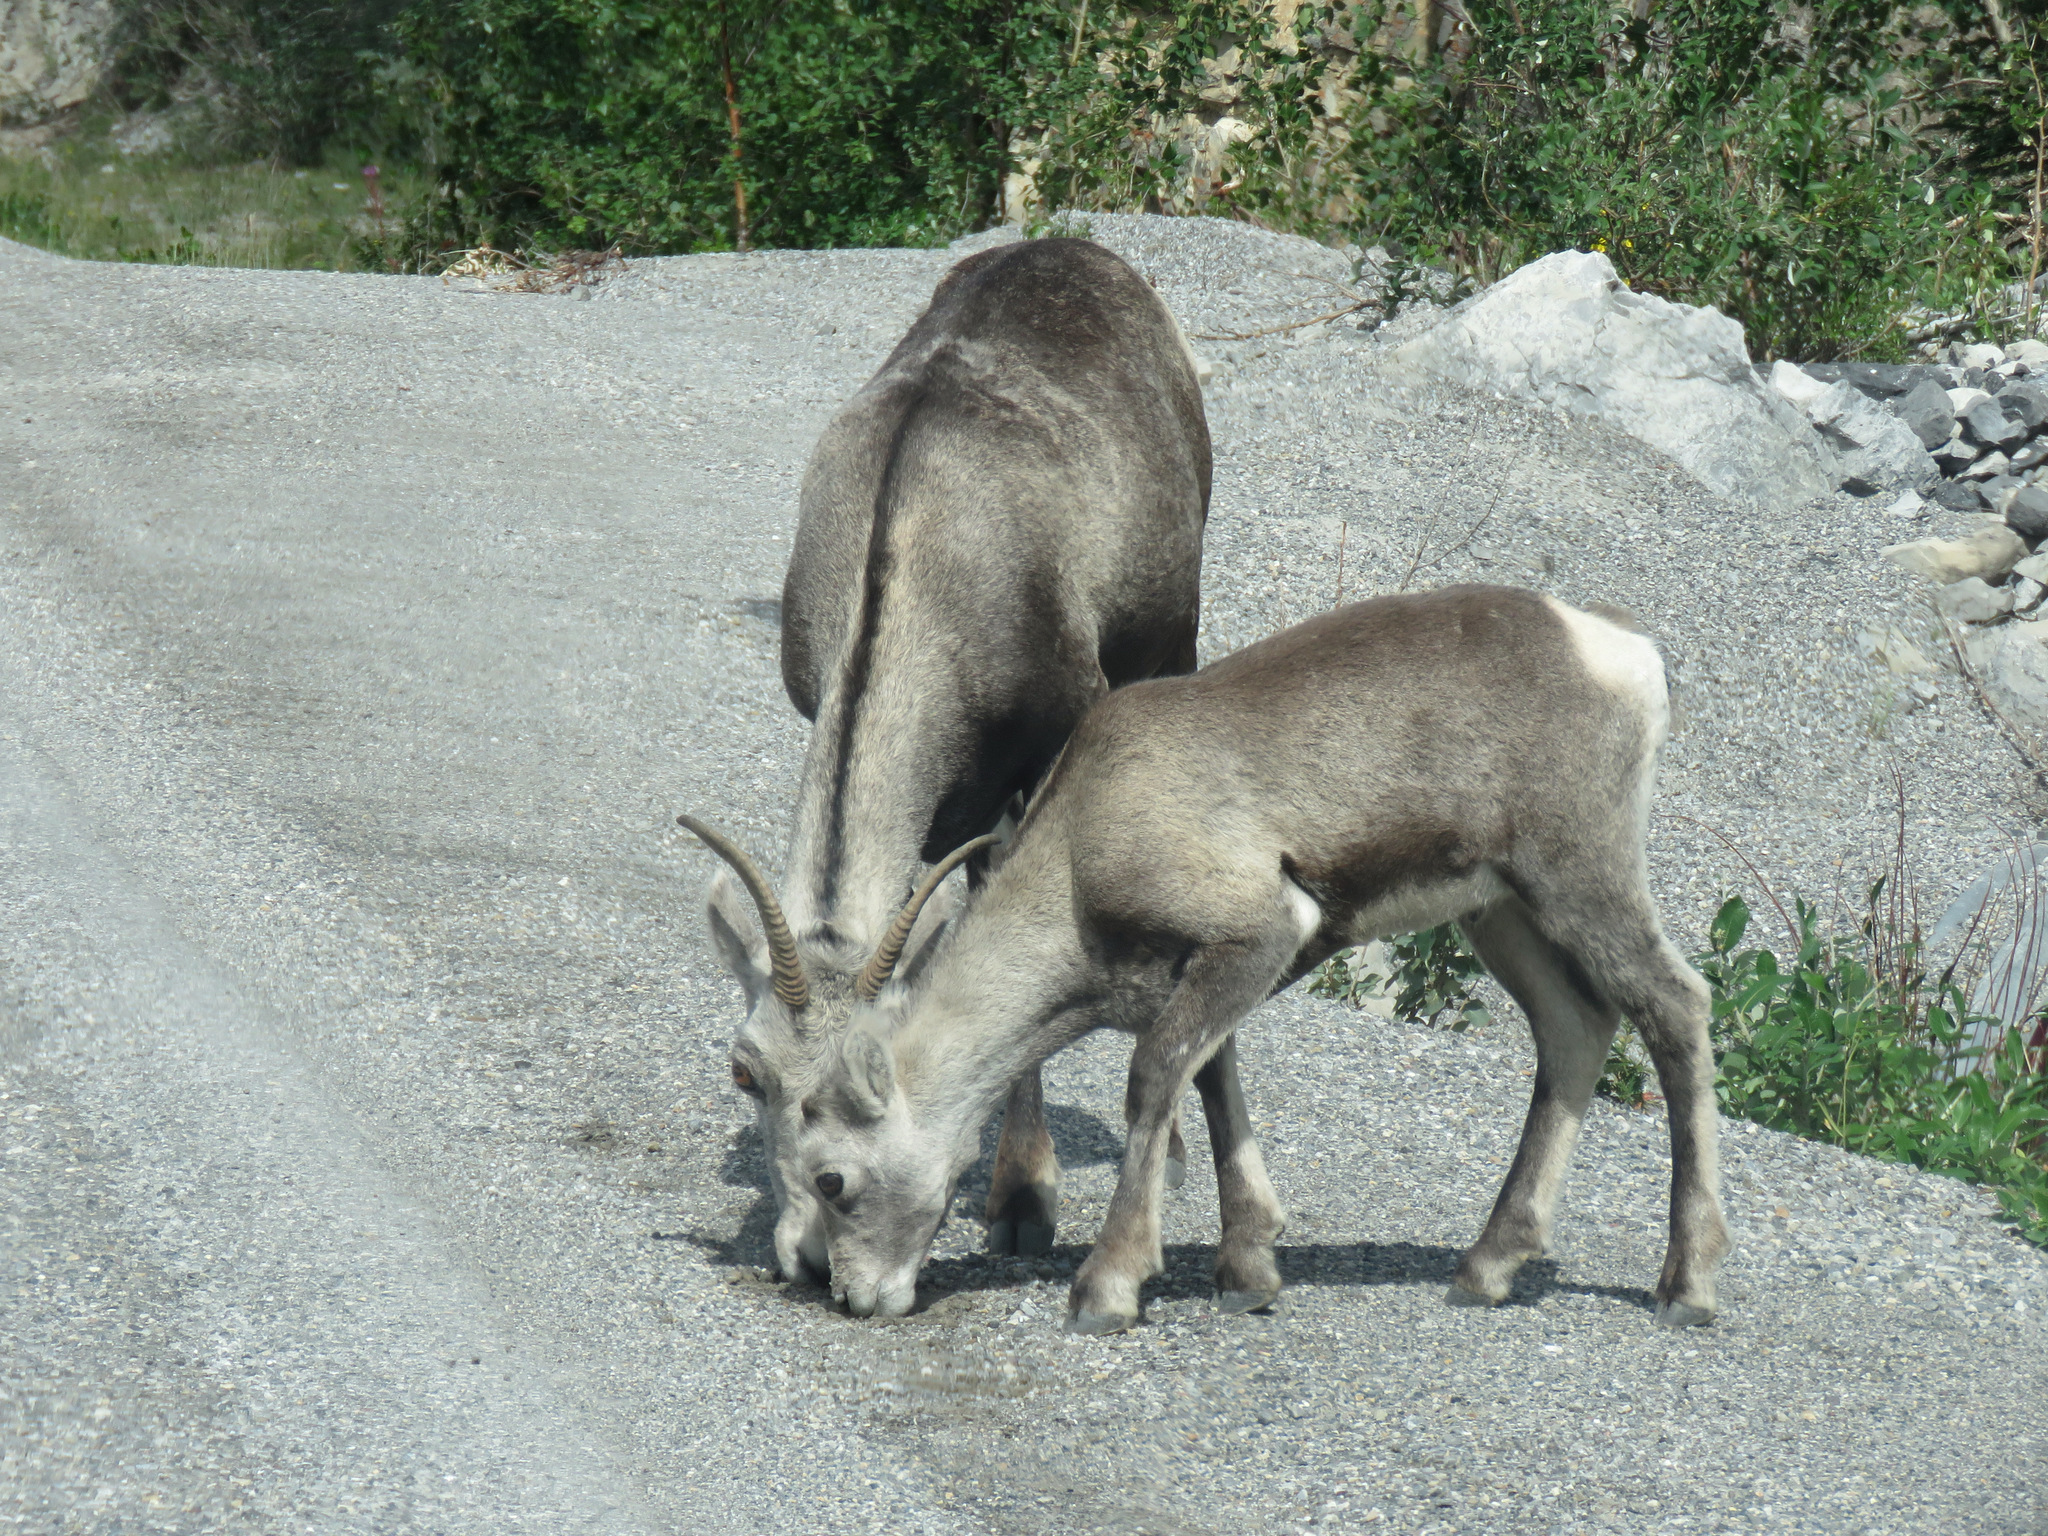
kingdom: Animalia
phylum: Chordata
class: Mammalia
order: Artiodactyla
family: Bovidae
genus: Ovis
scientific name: Ovis dalli
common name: Dall's sheep
